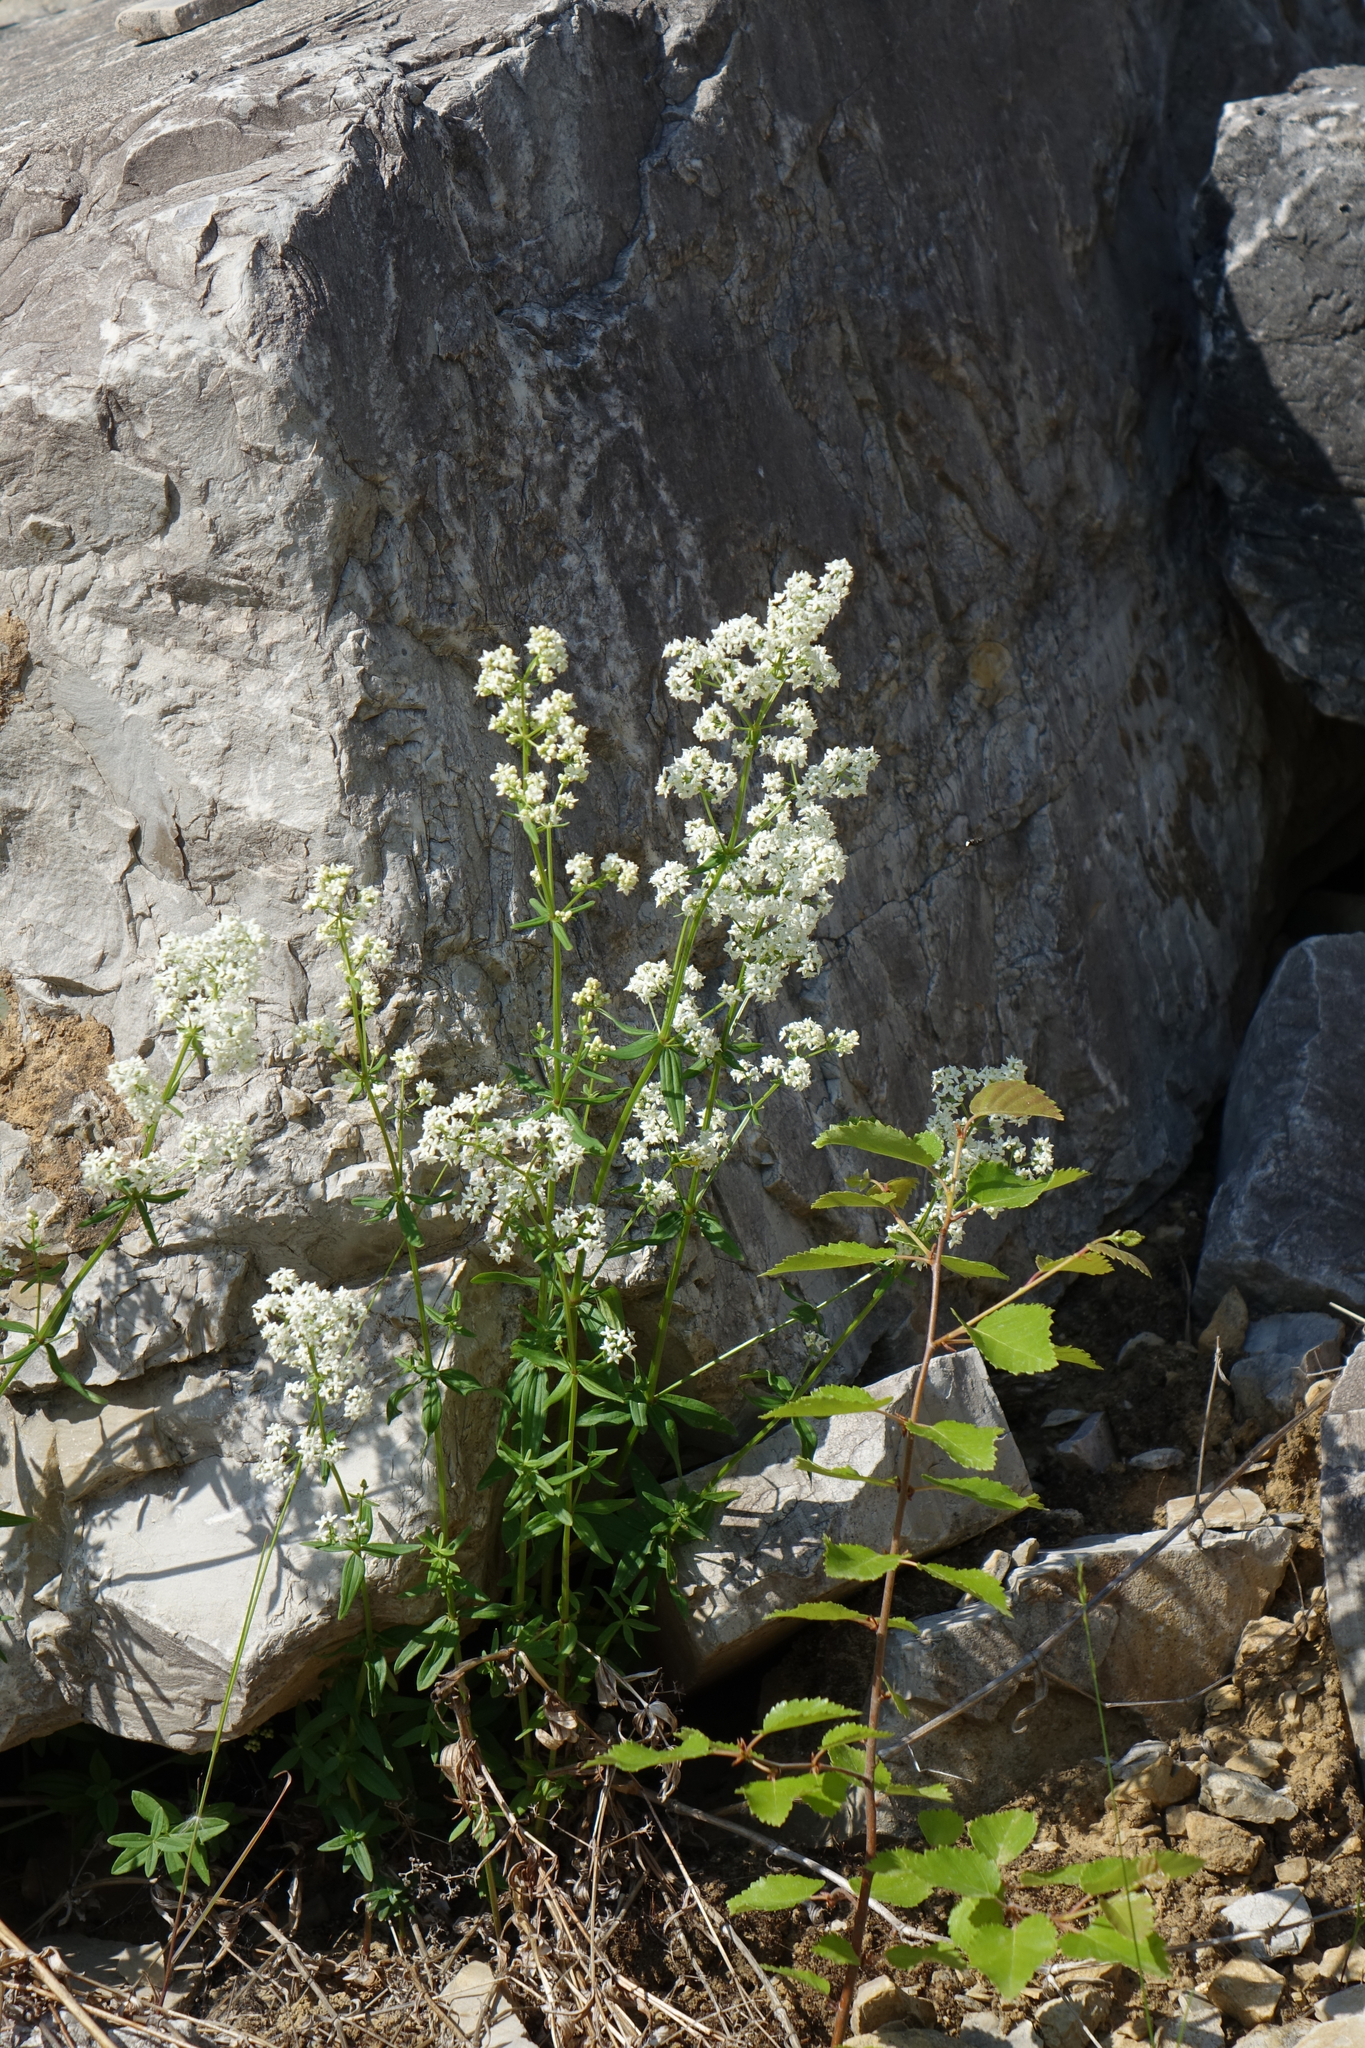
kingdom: Plantae
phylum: Tracheophyta
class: Magnoliopsida
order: Gentianales
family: Rubiaceae
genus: Galium
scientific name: Galium boreale
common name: Northern bedstraw
